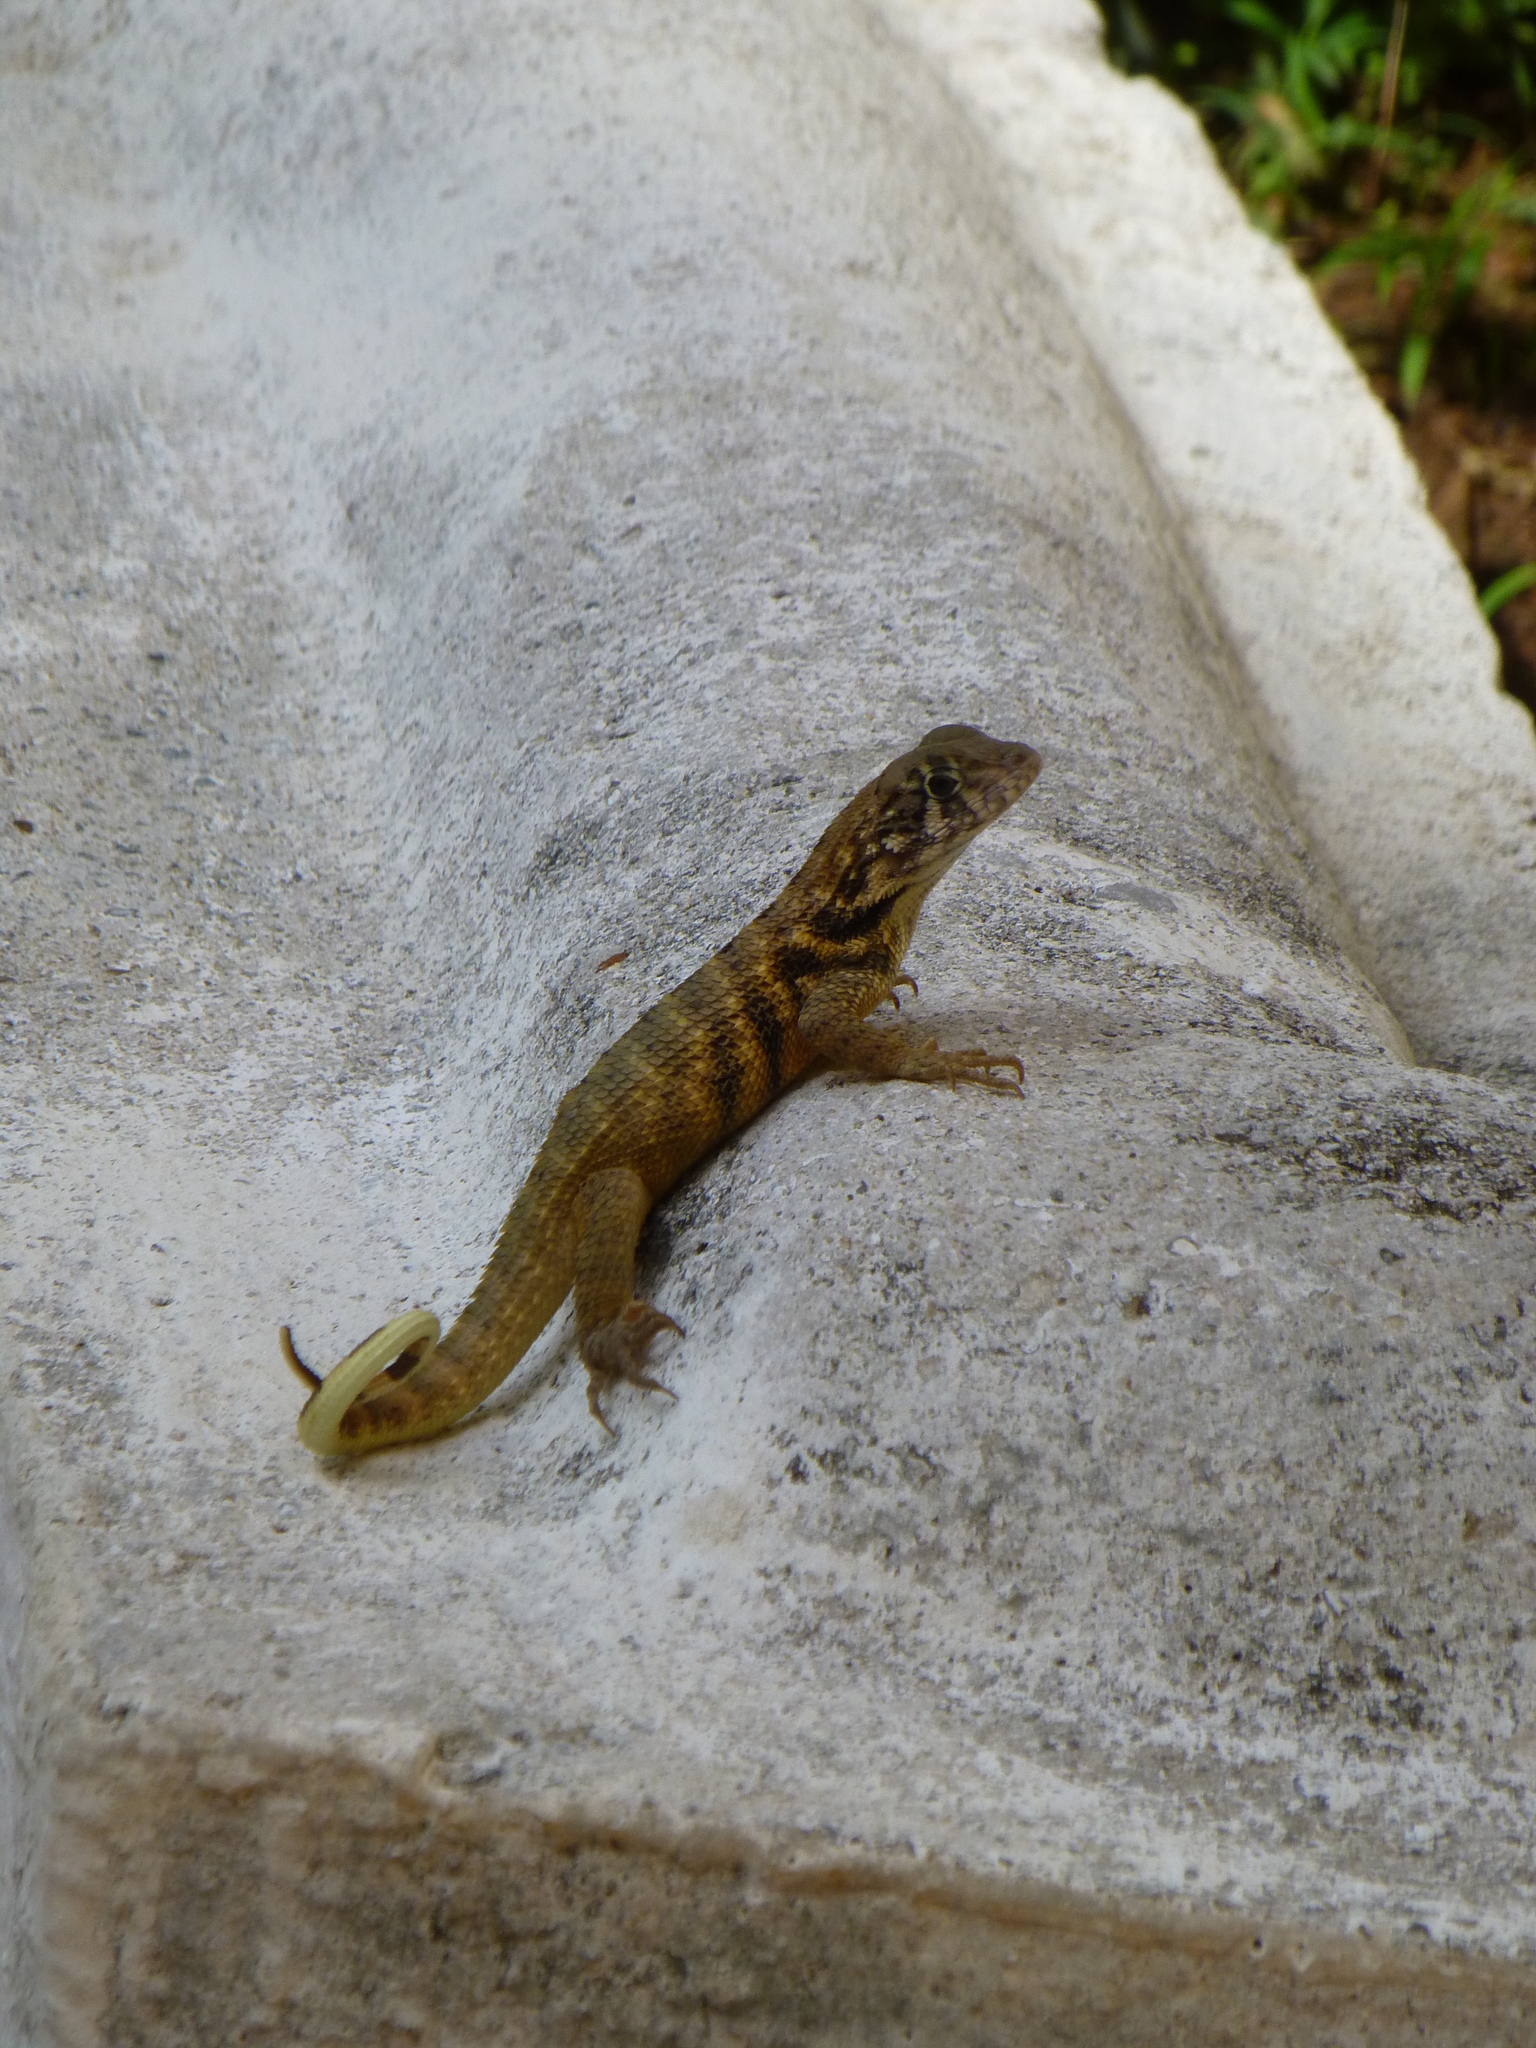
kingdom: Animalia
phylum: Chordata
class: Squamata
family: Leiocephalidae
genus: Leiocephalus
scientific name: Leiocephalus carinatus
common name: Northern curly-tailed lizard
